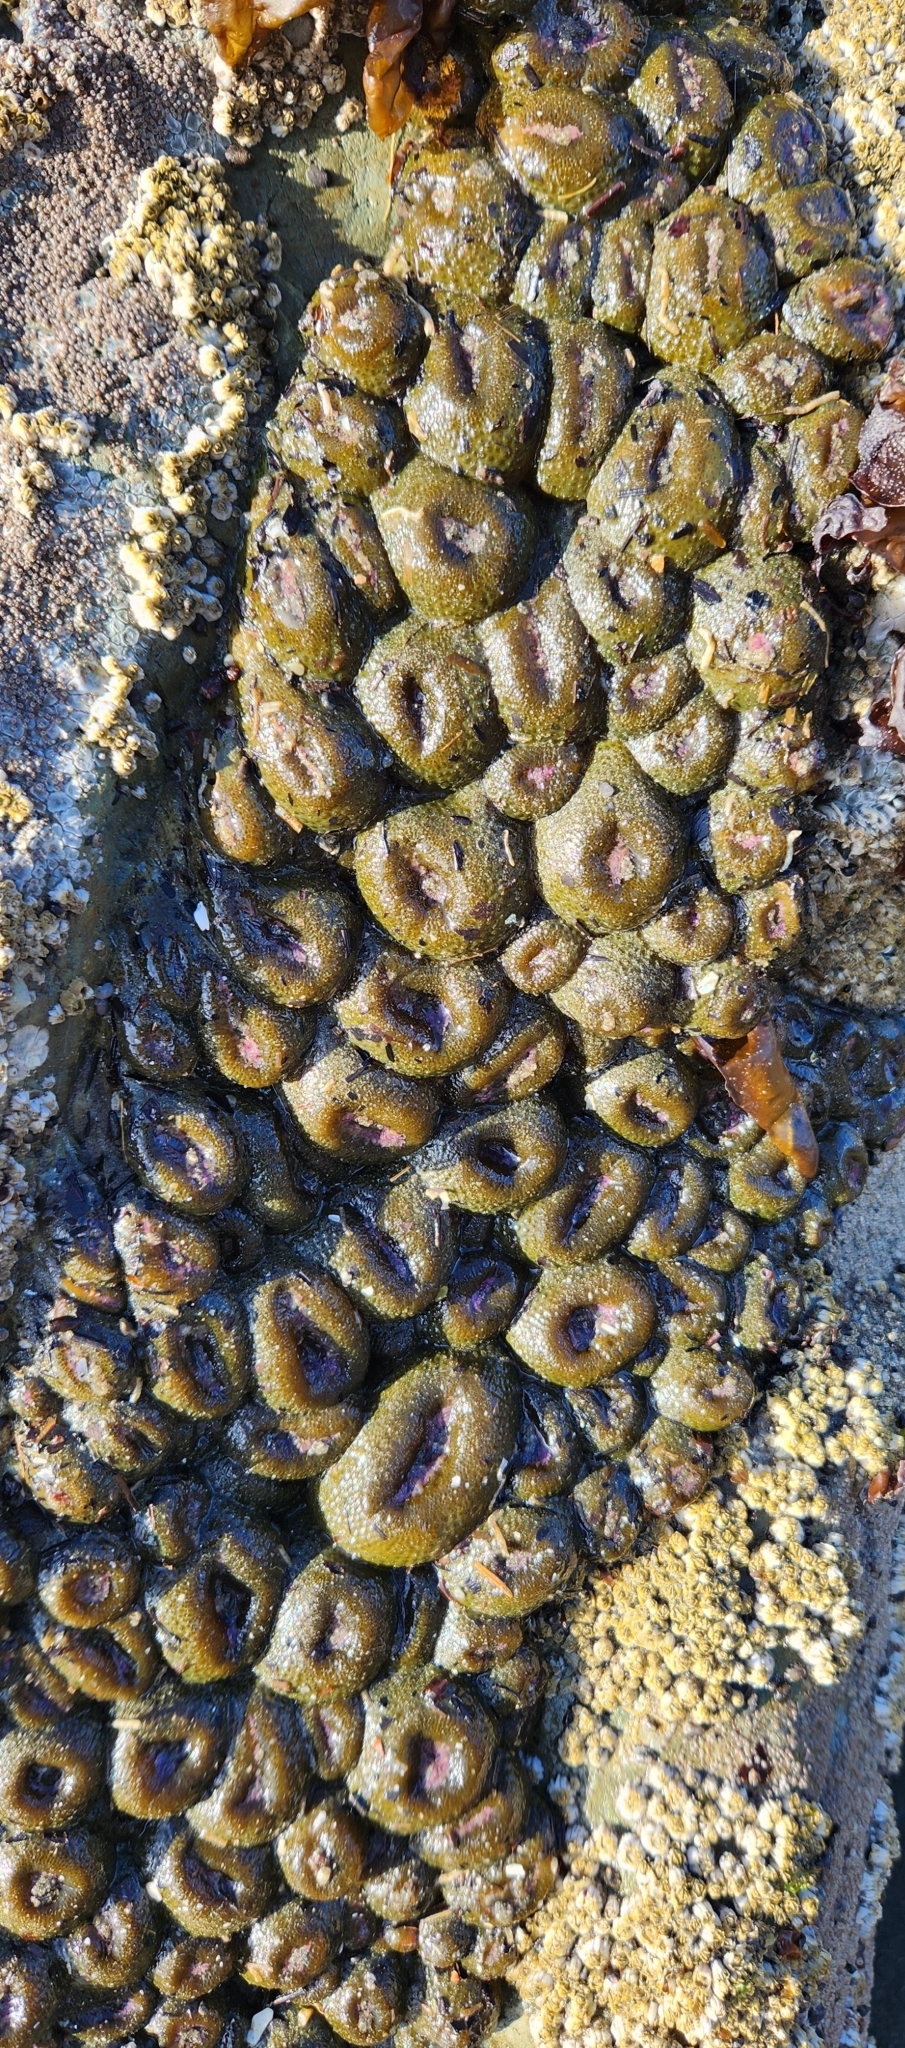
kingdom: Animalia
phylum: Cnidaria
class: Anthozoa
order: Actiniaria
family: Actiniidae
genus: Anthopleura
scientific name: Anthopleura elegantissima
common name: Clonal anemone
